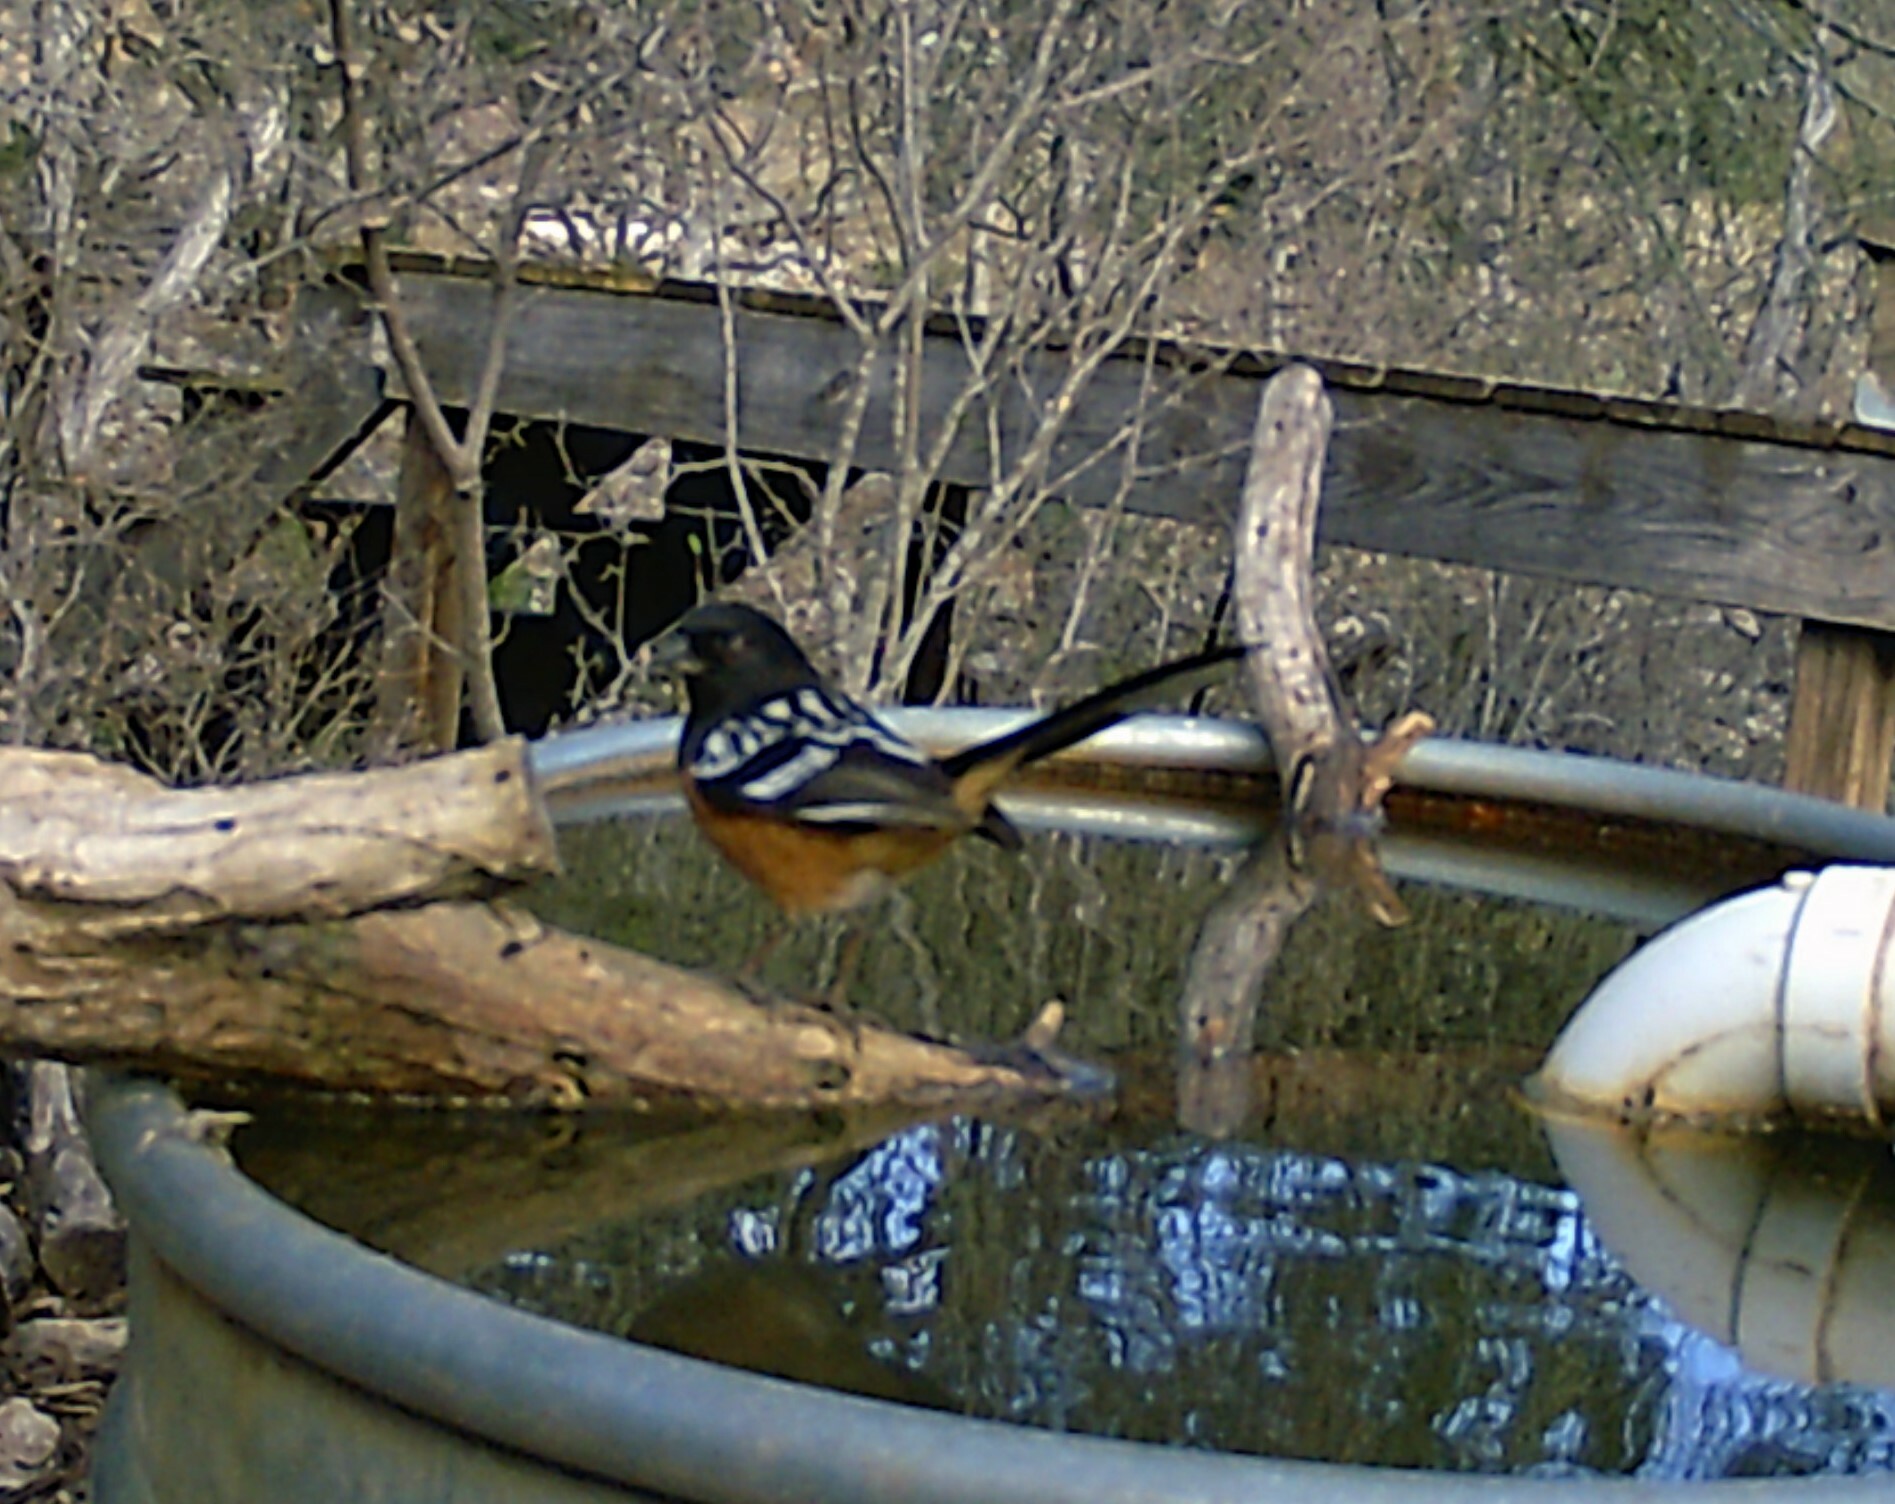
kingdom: Animalia
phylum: Chordata
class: Aves
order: Passeriformes
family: Passerellidae
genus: Pipilo
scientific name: Pipilo maculatus
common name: Spotted towhee
